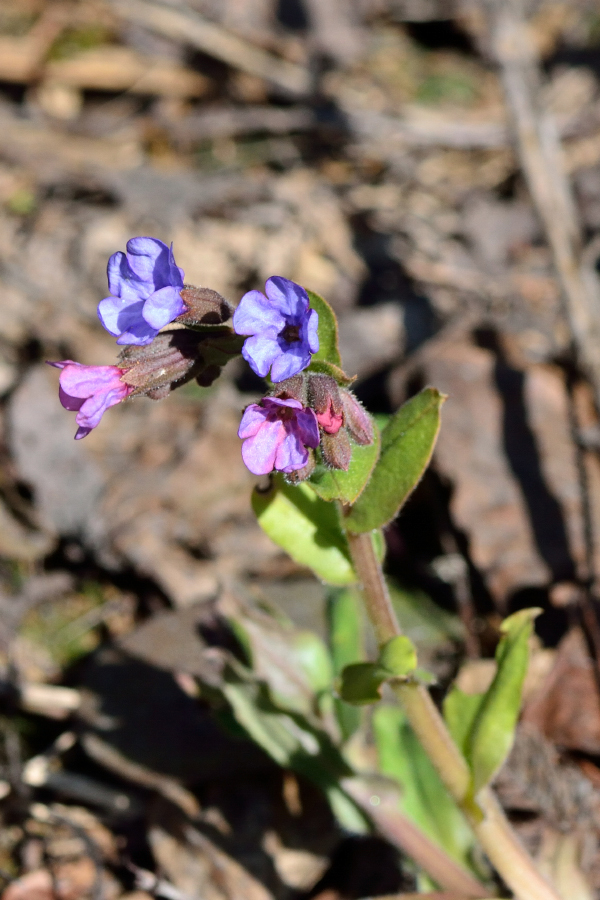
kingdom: Plantae
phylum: Tracheophyta
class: Magnoliopsida
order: Boraginales
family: Boraginaceae
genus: Pulmonaria
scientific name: Pulmonaria obscura
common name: Suffolk lungwort
